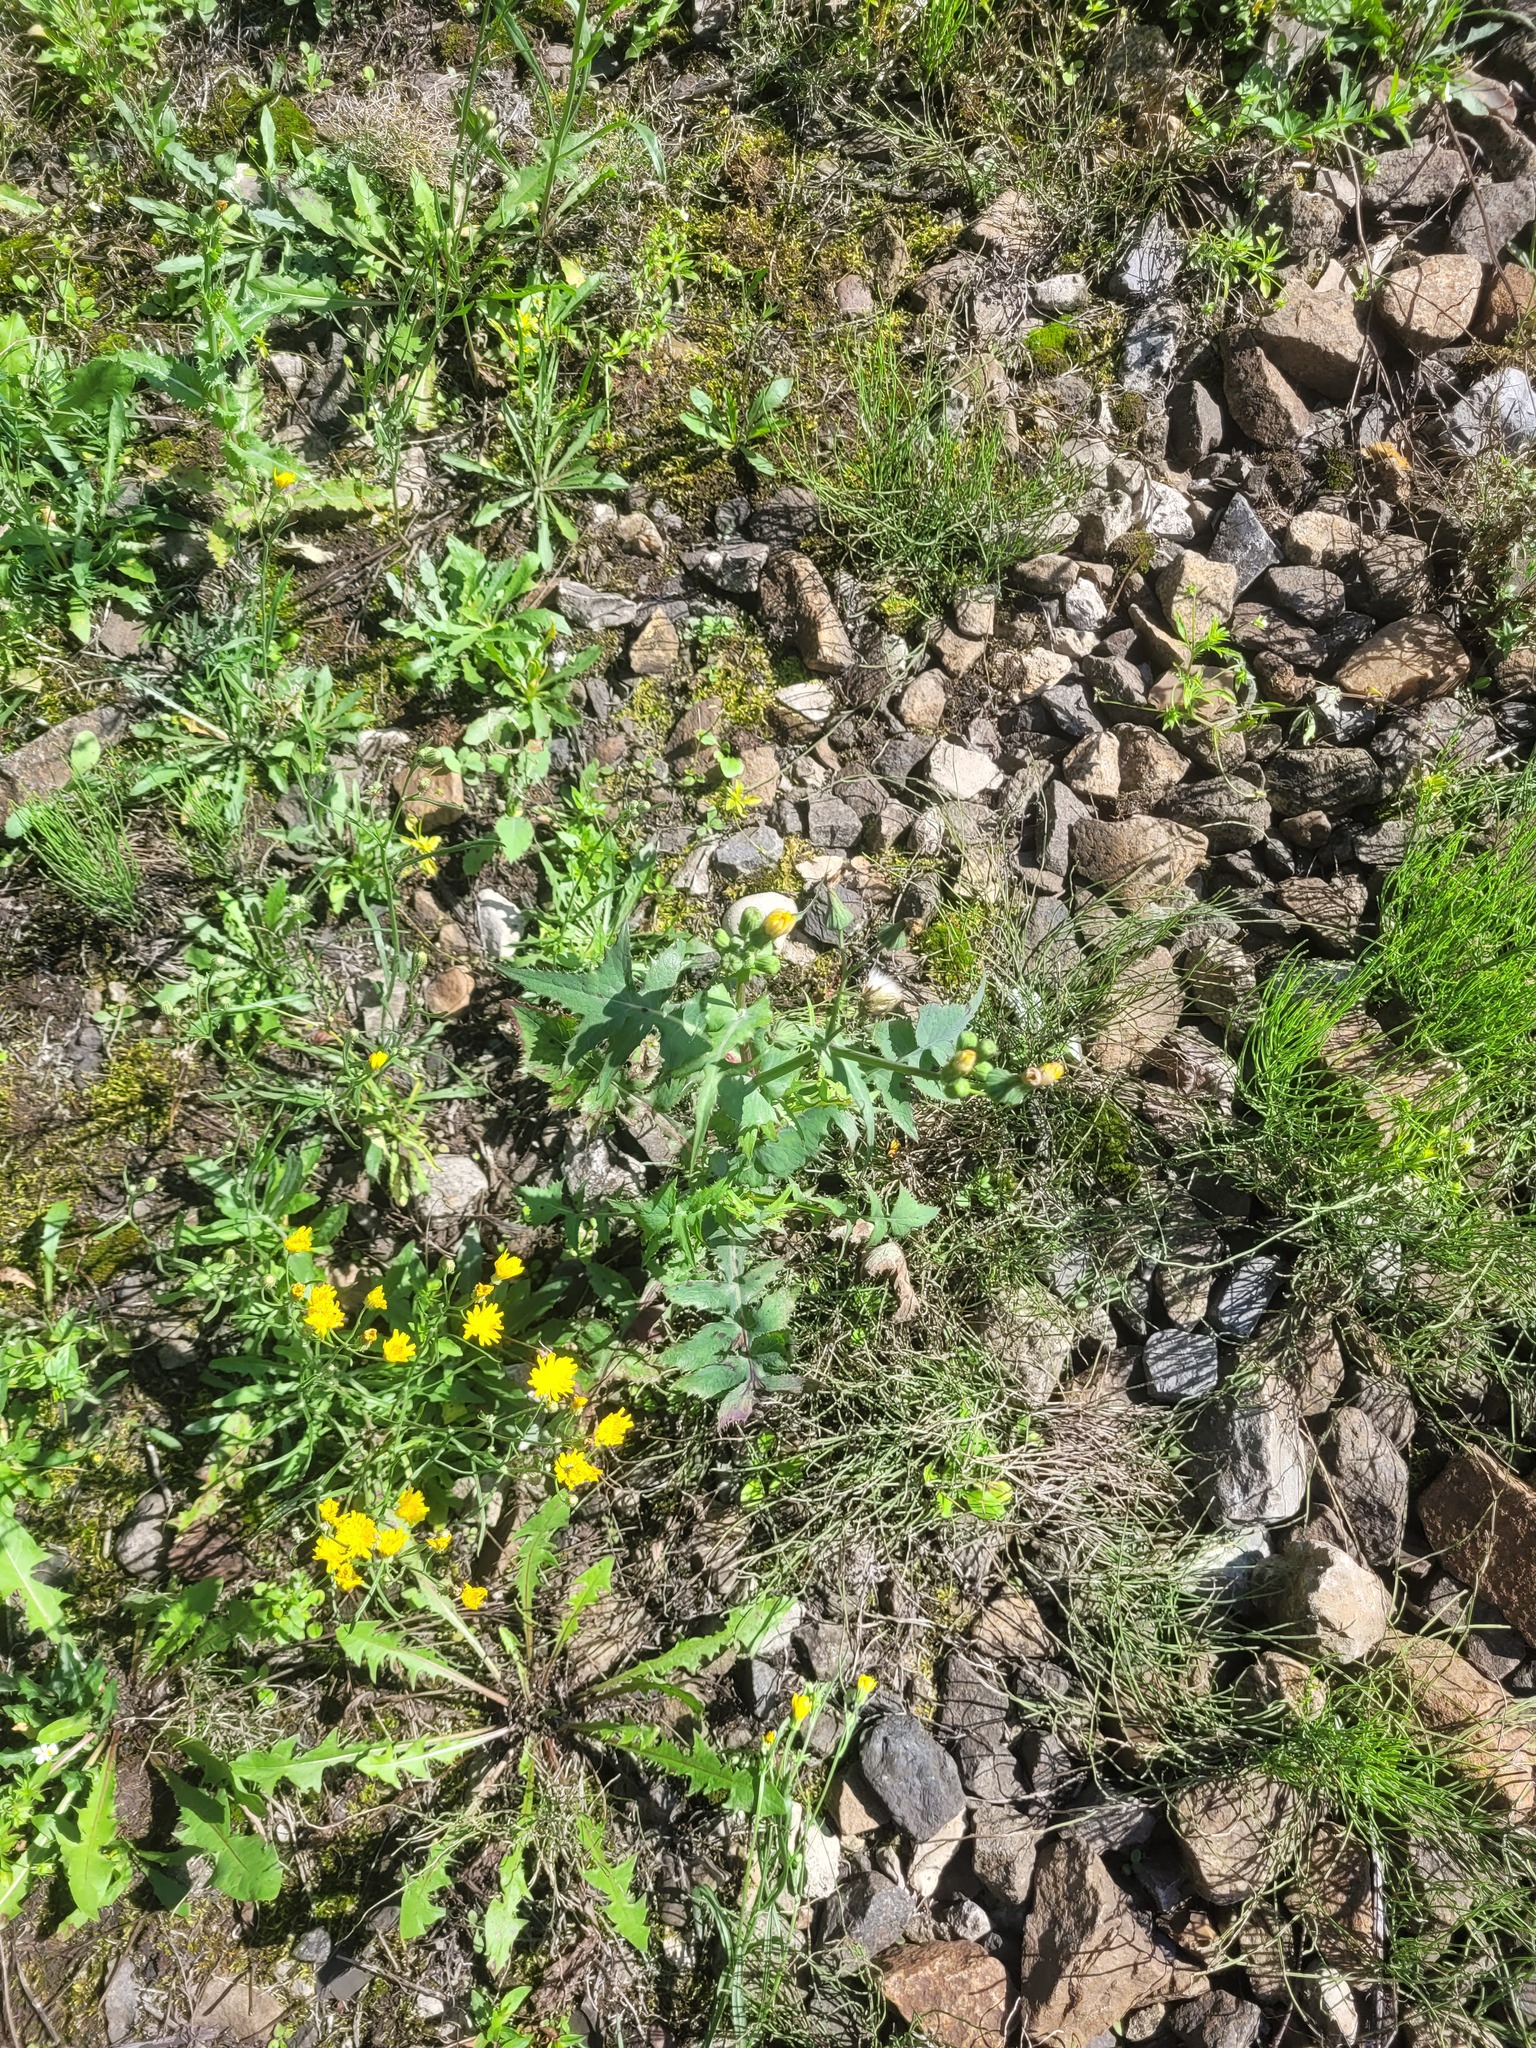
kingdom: Plantae
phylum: Tracheophyta
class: Magnoliopsida
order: Asterales
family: Asteraceae
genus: Sonchus
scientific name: Sonchus oleraceus
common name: Common sowthistle
